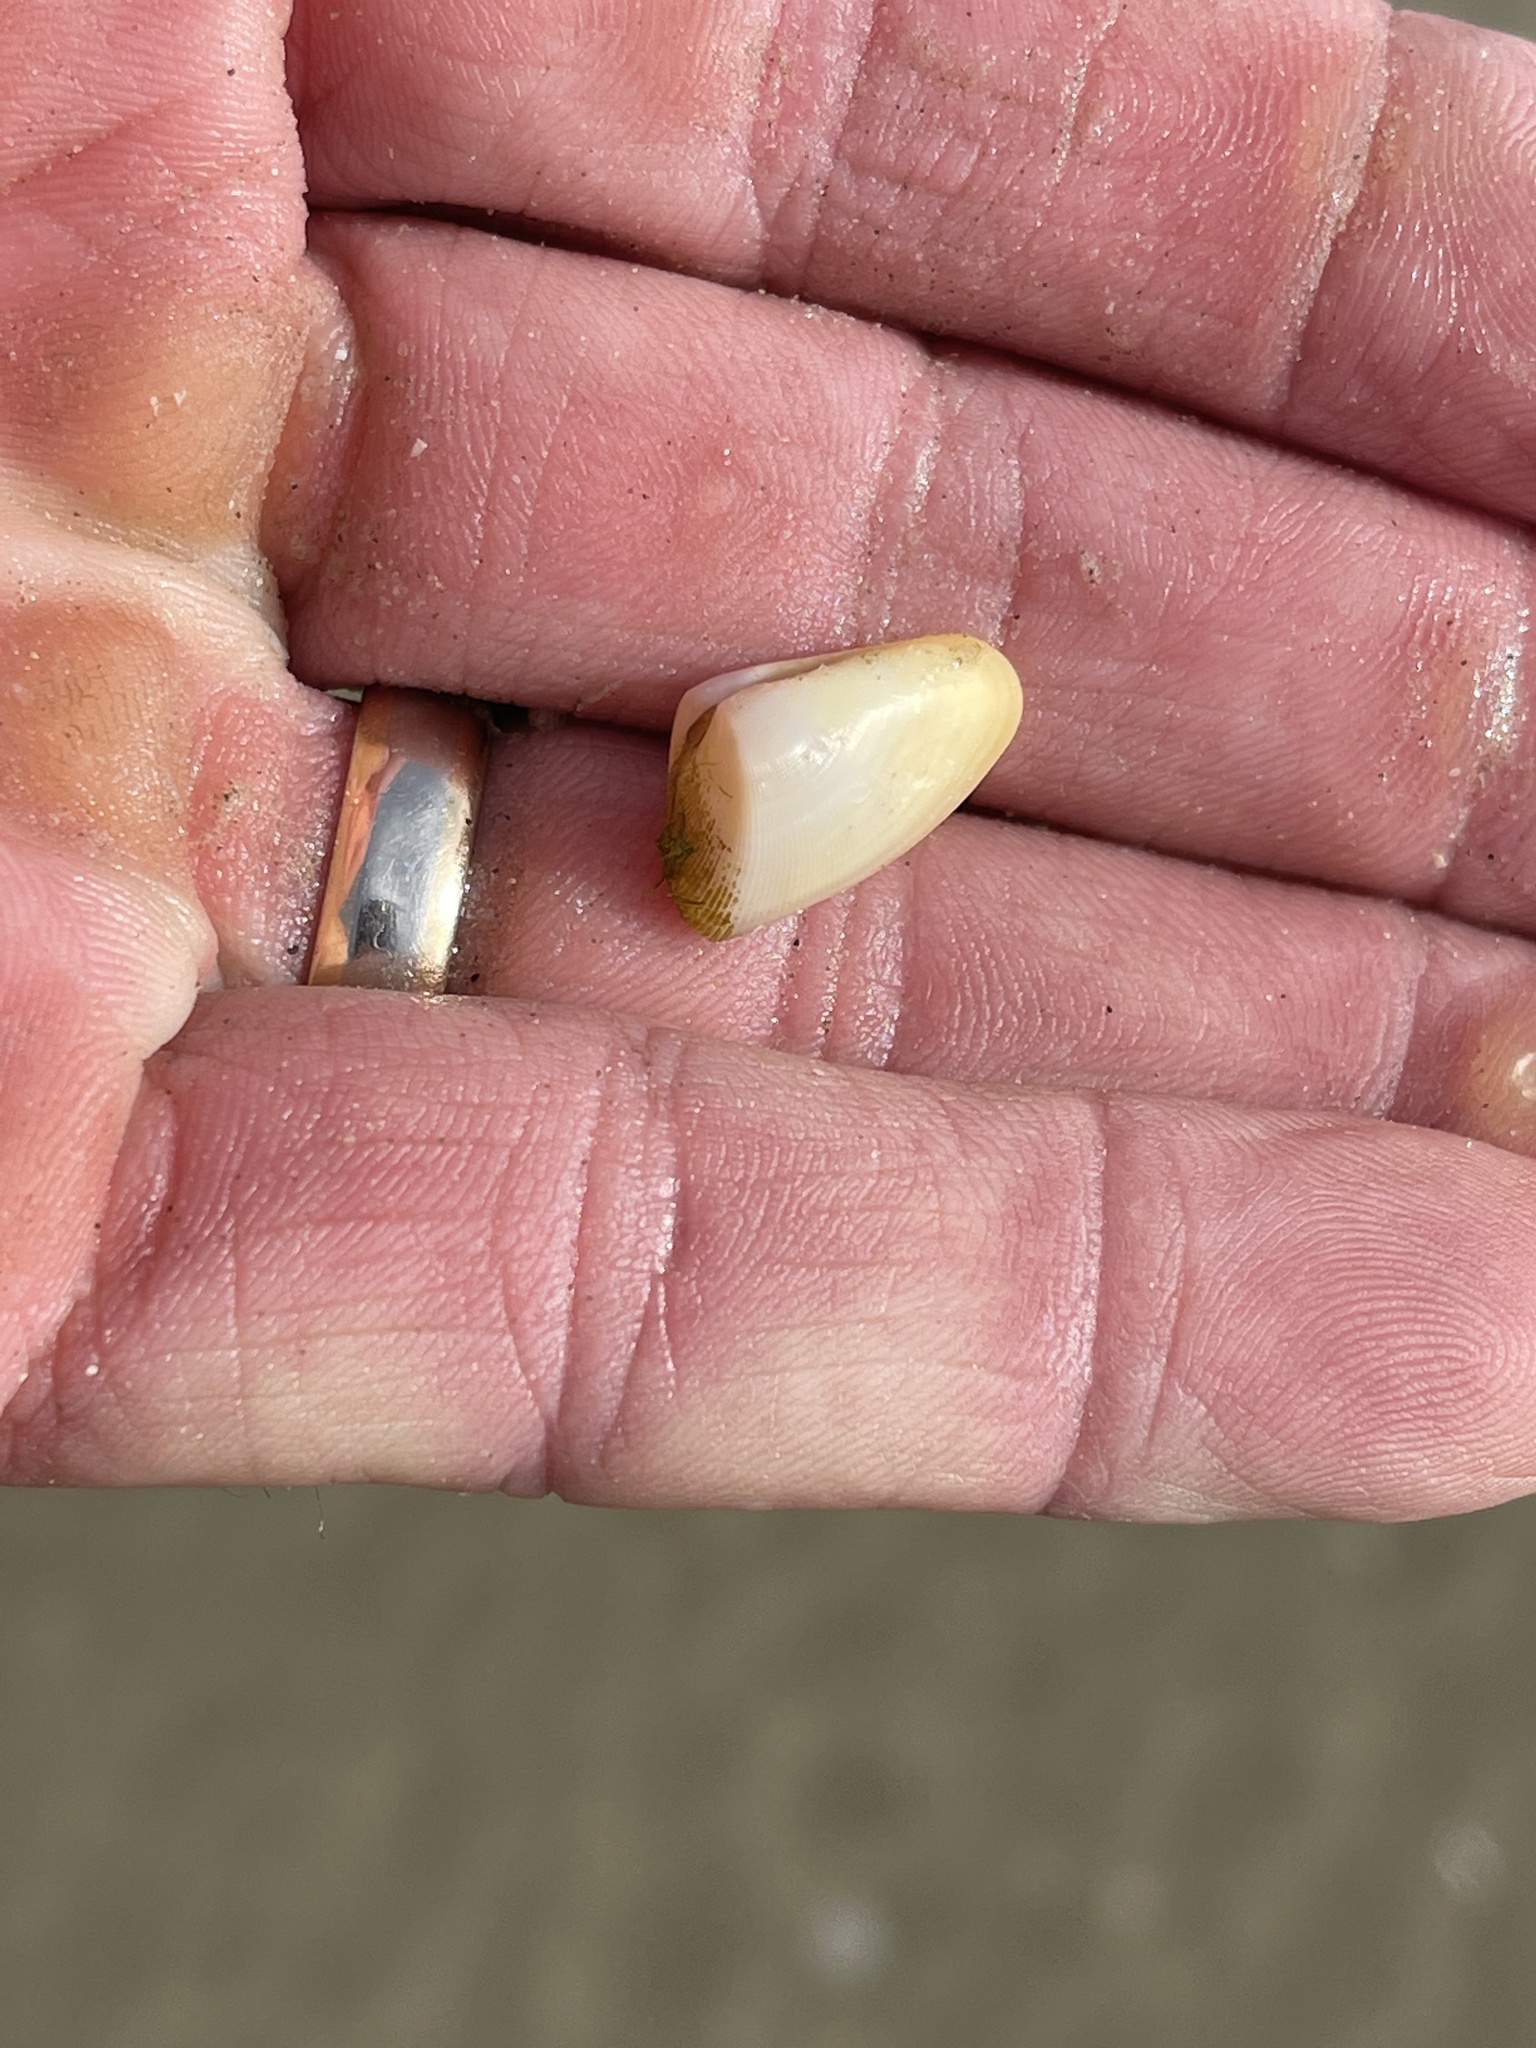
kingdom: Animalia
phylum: Mollusca
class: Bivalvia
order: Cardiida
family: Donacidae
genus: Donax
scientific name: Donax variabilis
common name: Butterfly shell
